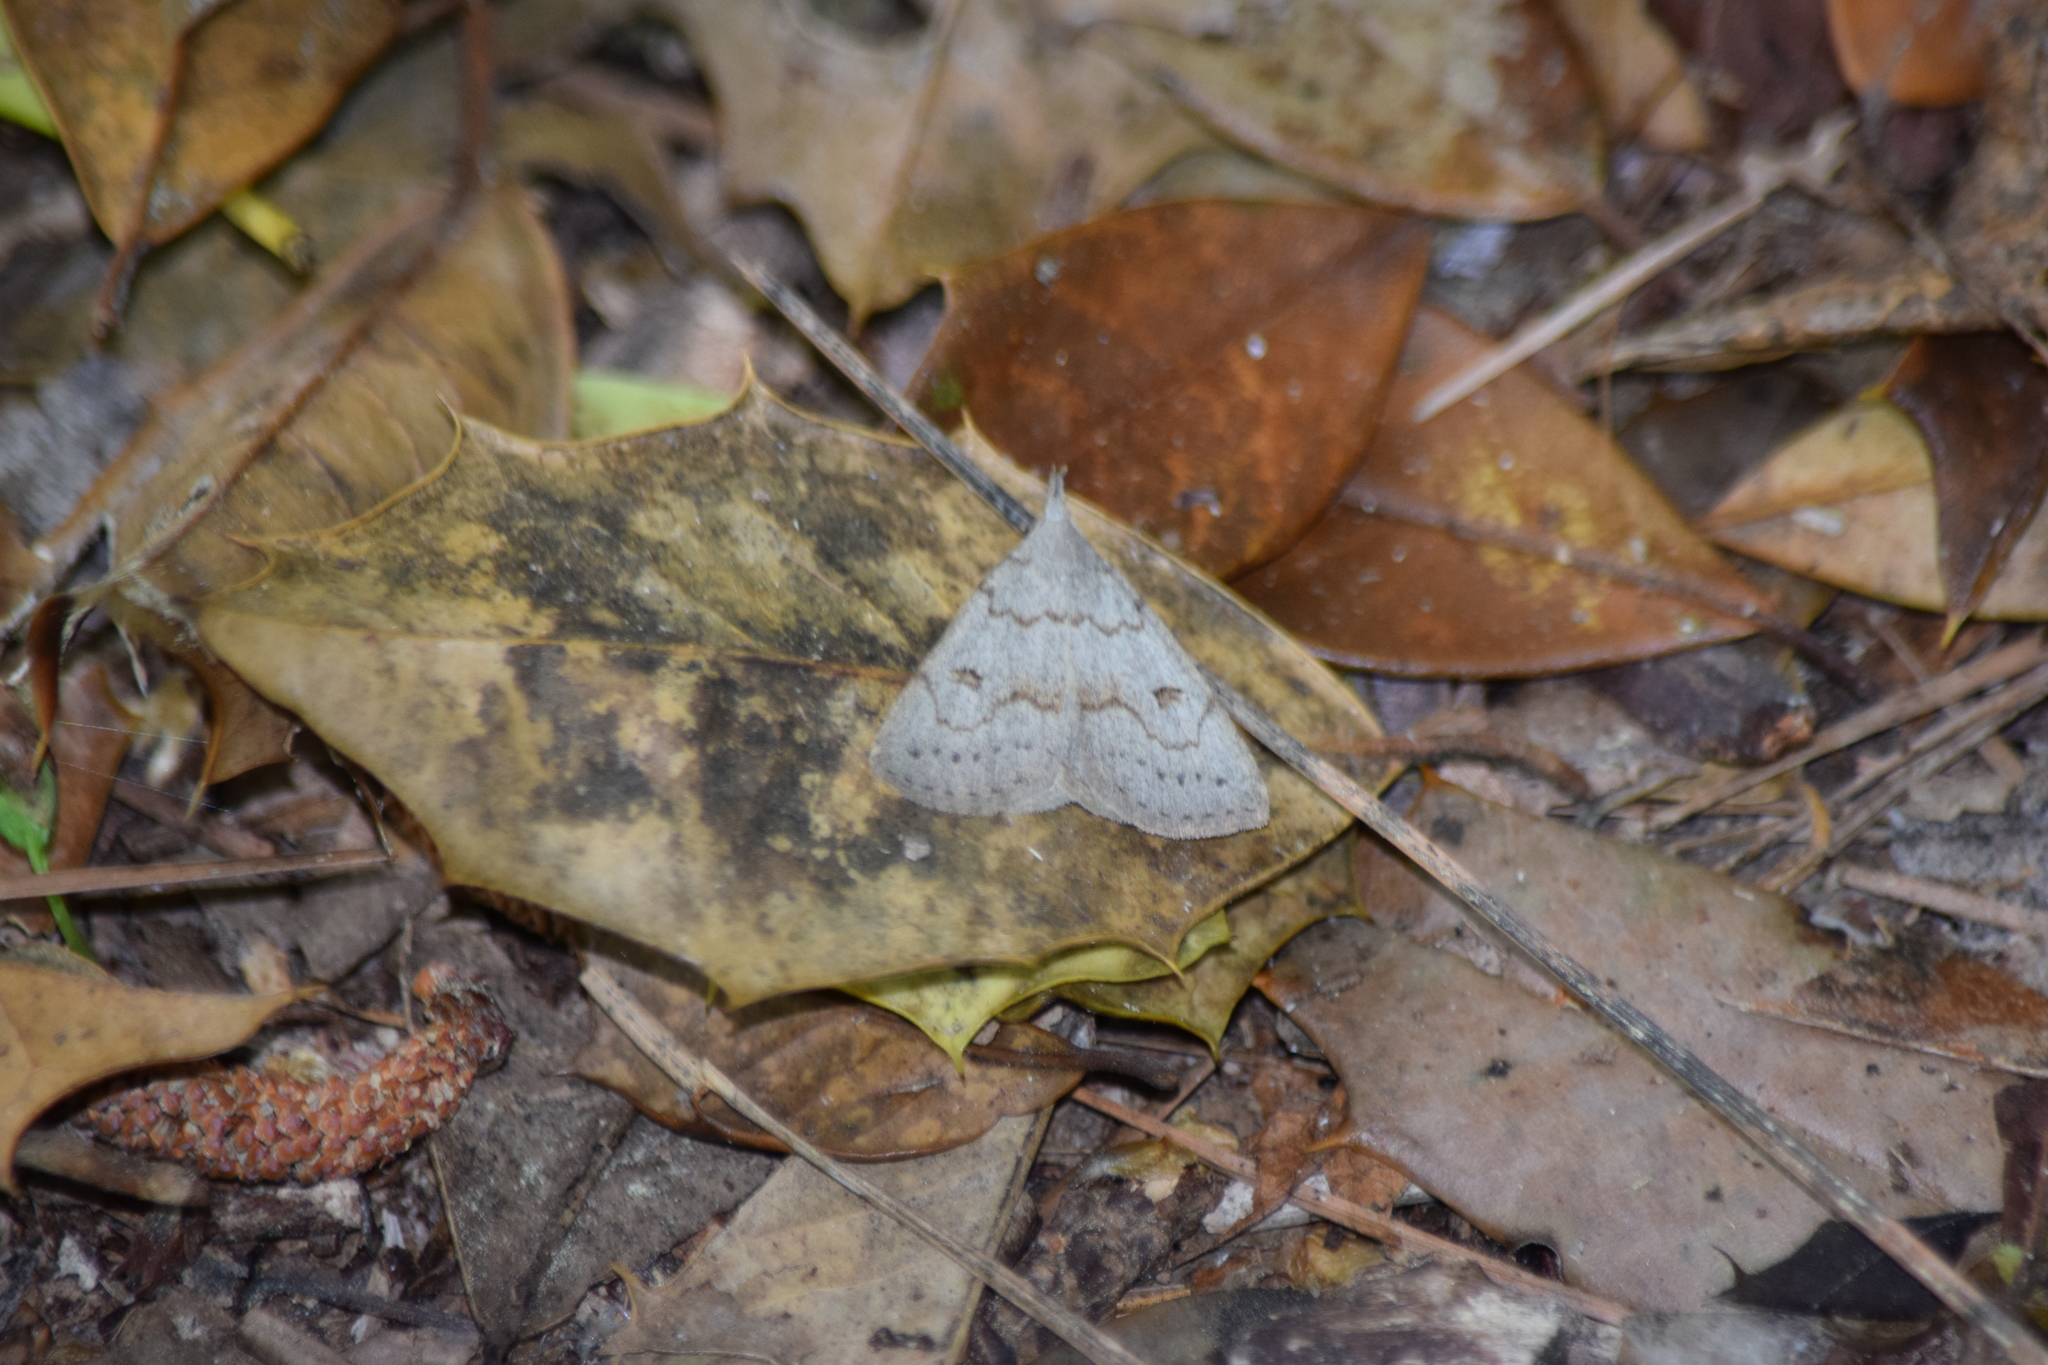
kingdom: Animalia
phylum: Arthropoda
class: Insecta
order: Lepidoptera
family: Erebidae
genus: Macrochilo
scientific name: Macrochilo morbidalis
